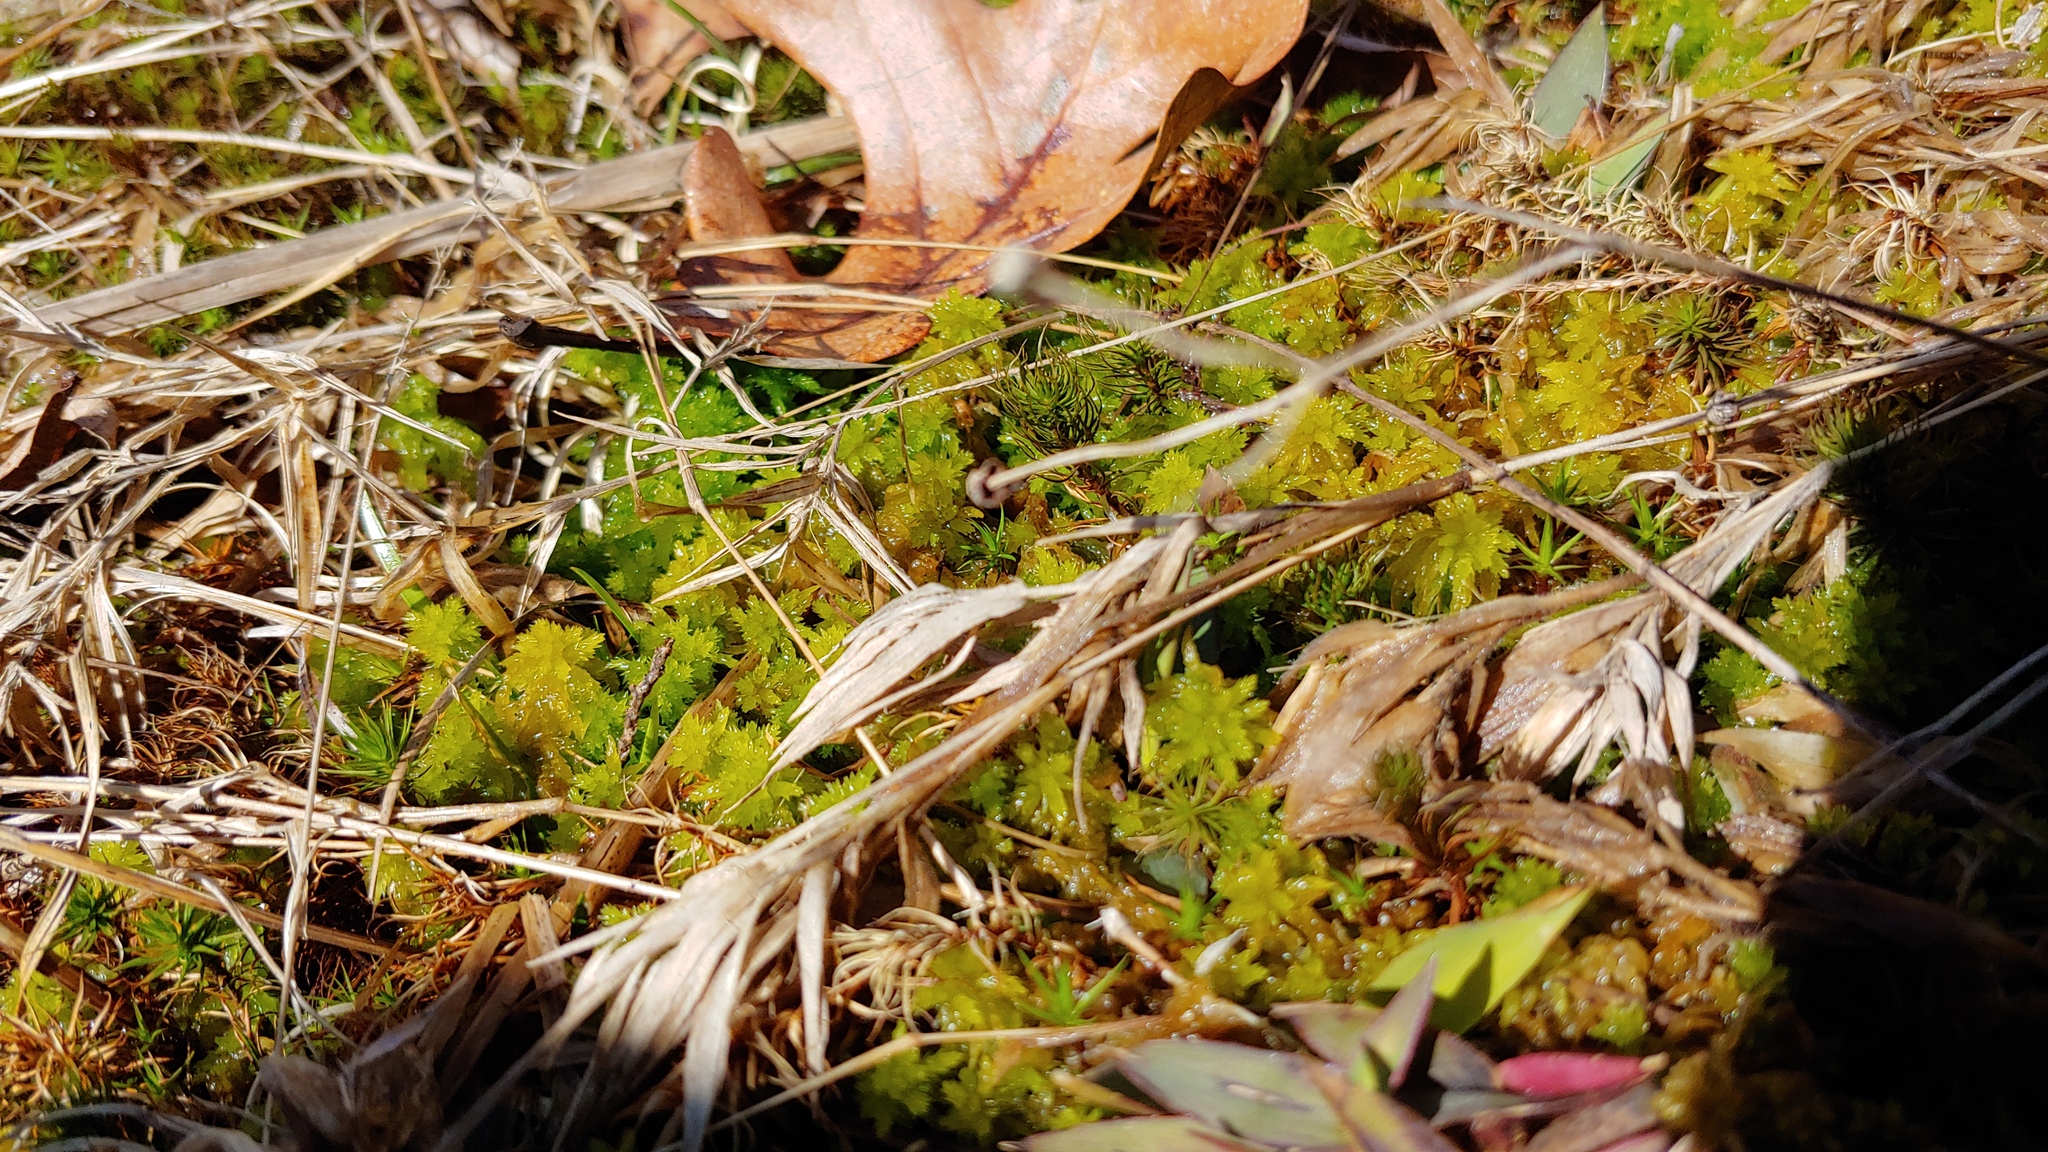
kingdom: Plantae
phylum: Bryophyta
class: Sphagnopsida
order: Sphagnales
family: Sphagnaceae
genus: Sphagnum
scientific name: Sphagnum compactum
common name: Compact peat moss
